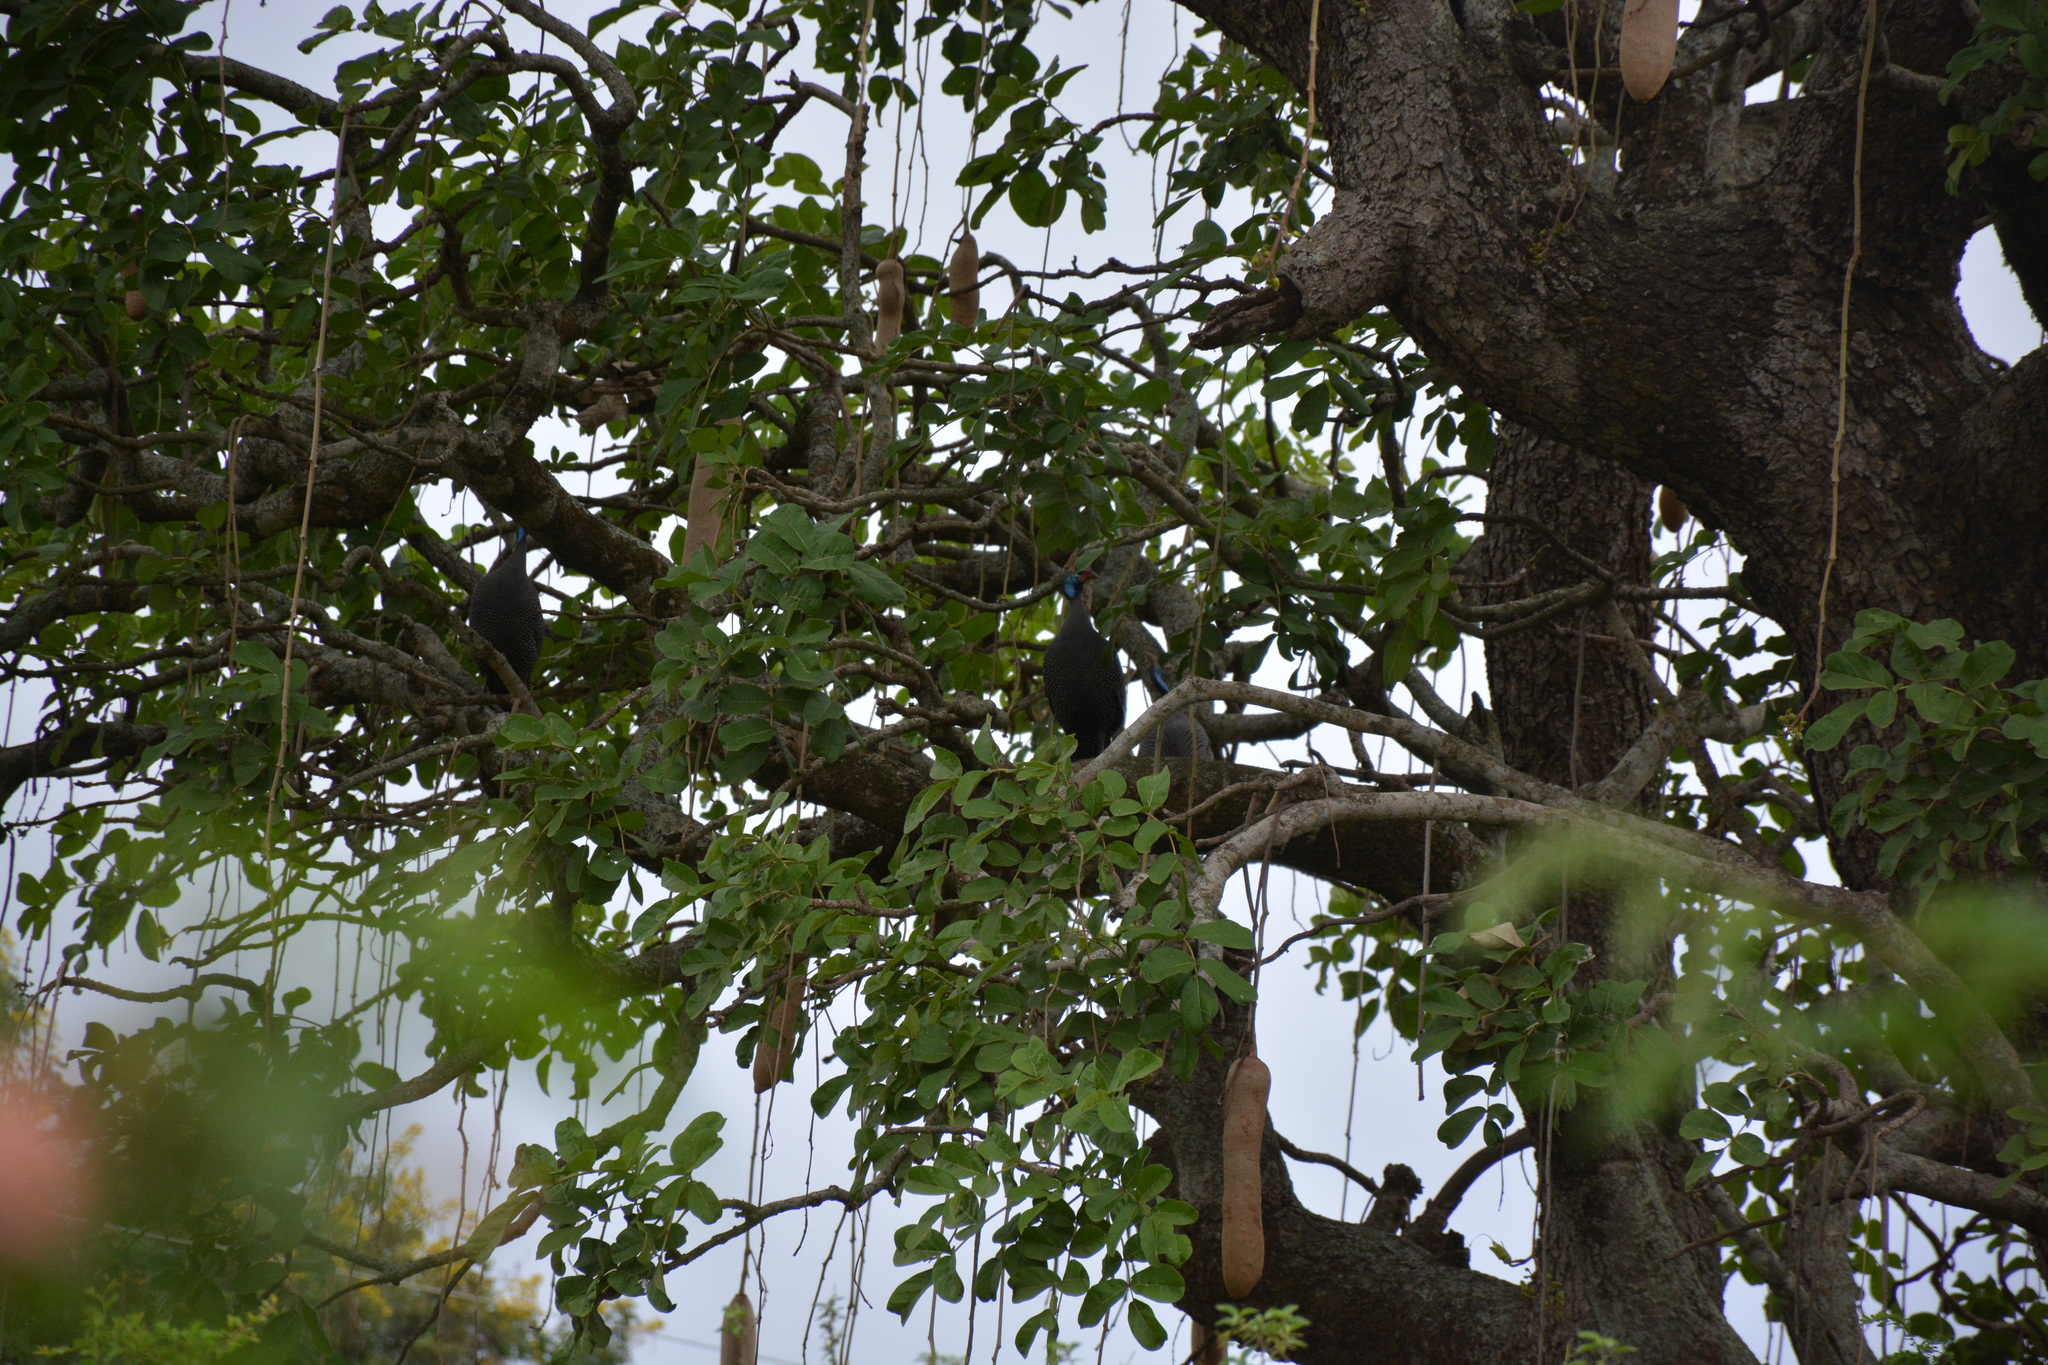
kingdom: Animalia
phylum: Chordata
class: Aves
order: Galliformes
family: Numididae
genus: Numida
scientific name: Numida meleagris
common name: Helmeted guineafowl
